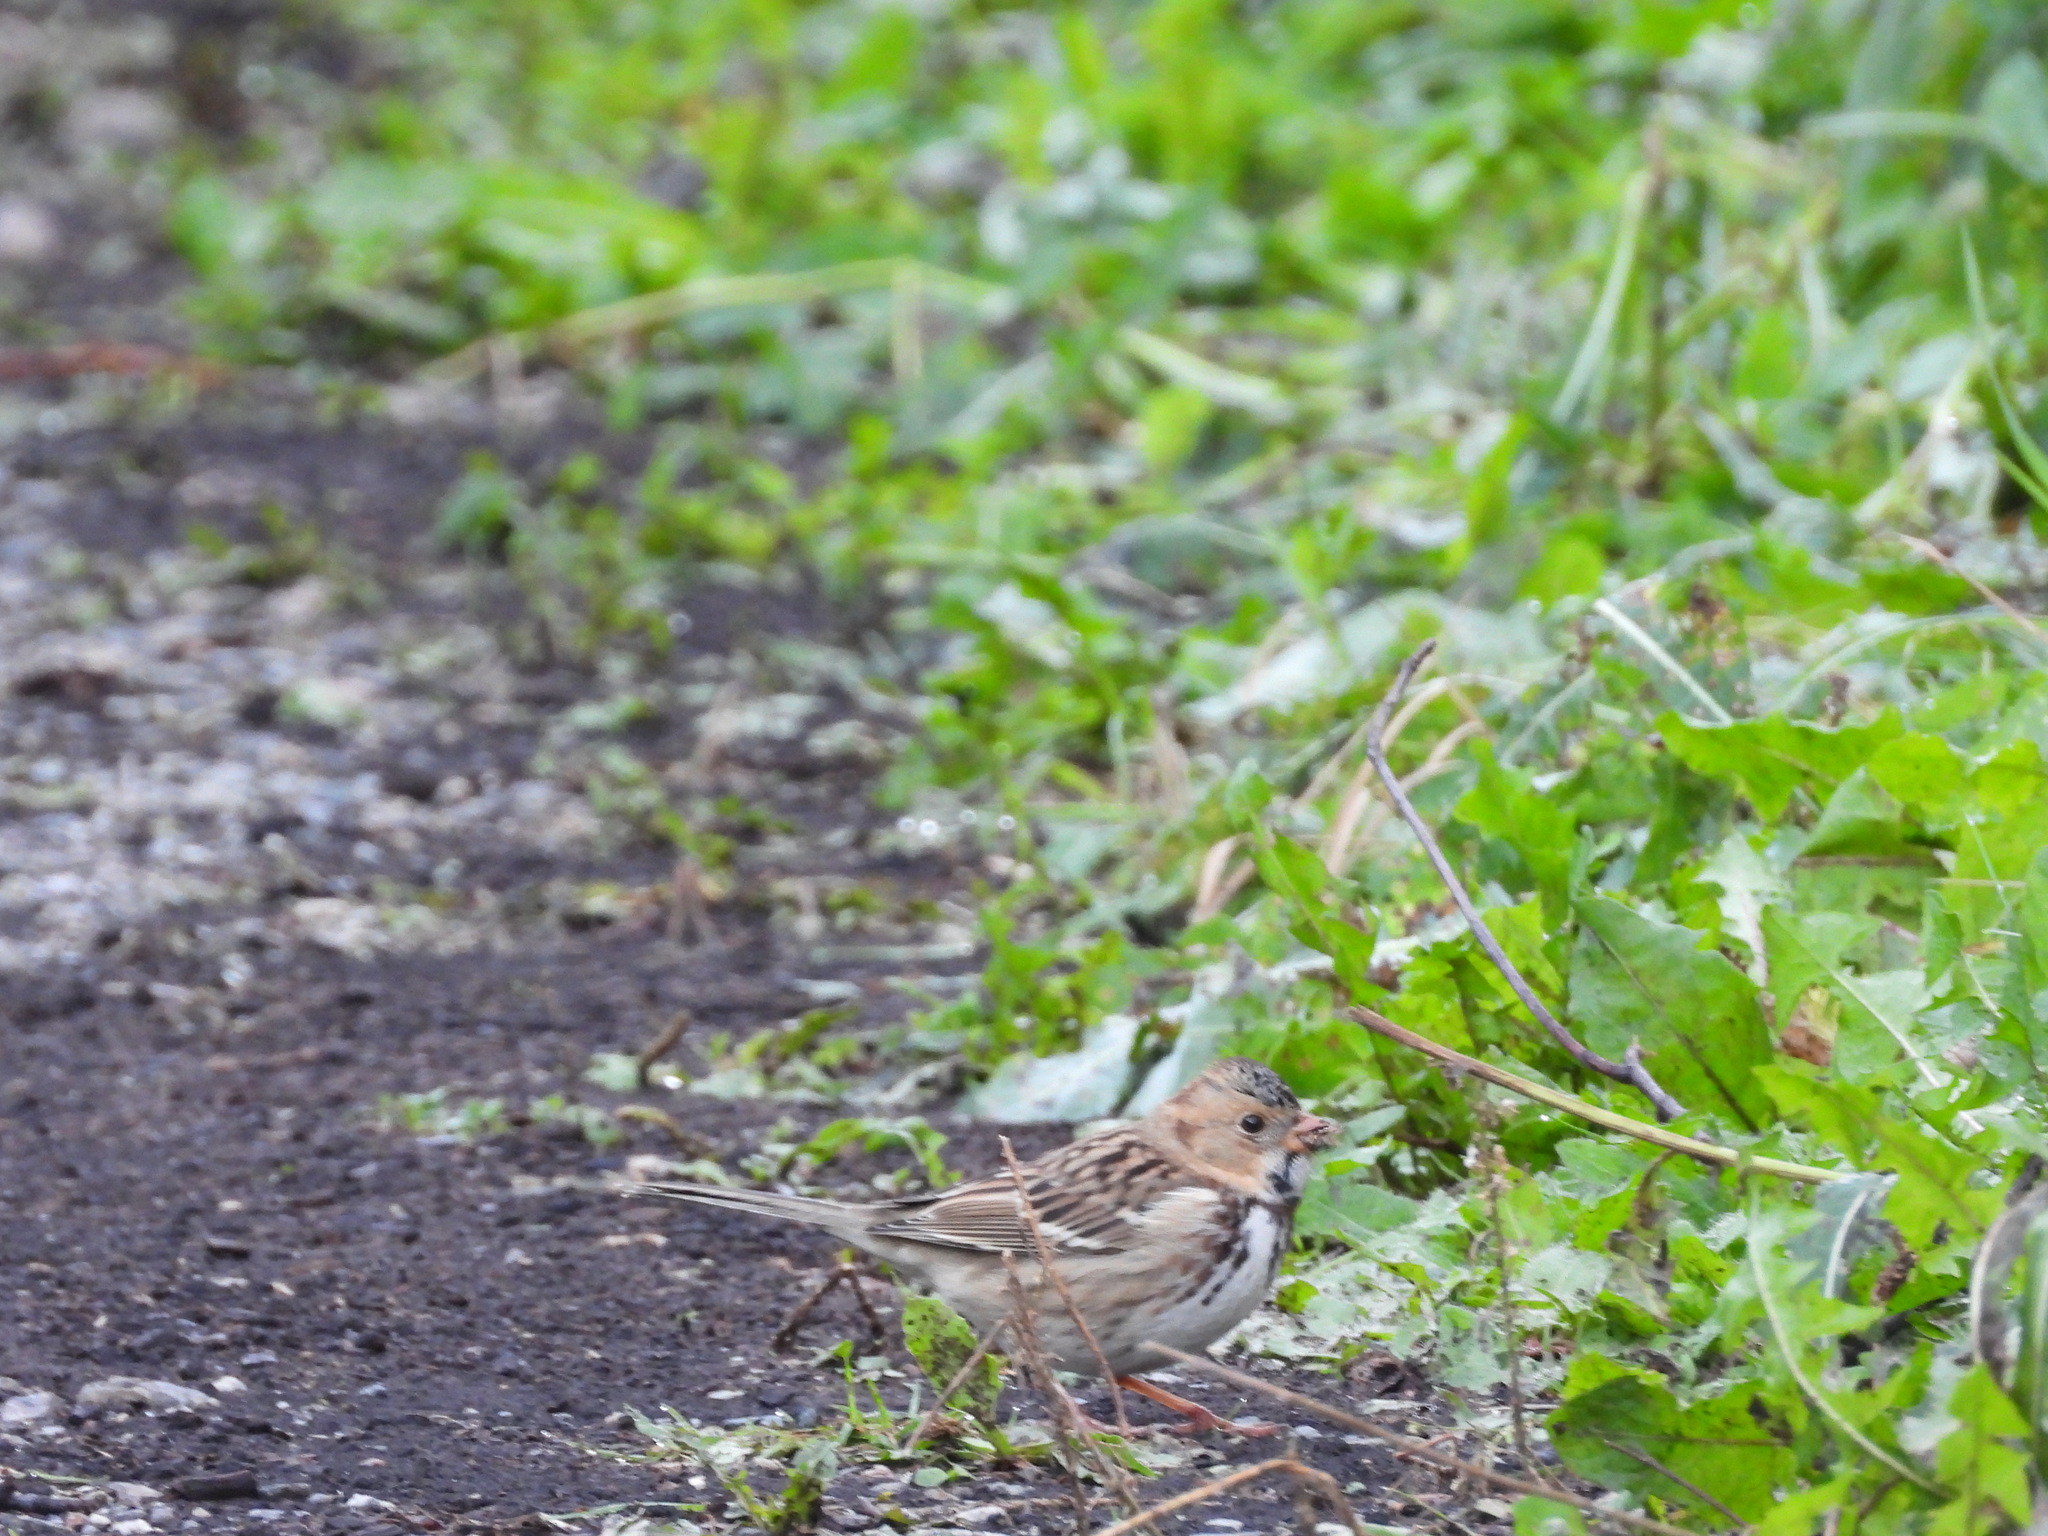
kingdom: Animalia
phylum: Chordata
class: Aves
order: Passeriformes
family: Passerellidae
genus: Zonotrichia
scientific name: Zonotrichia querula
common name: Harris's sparrow
